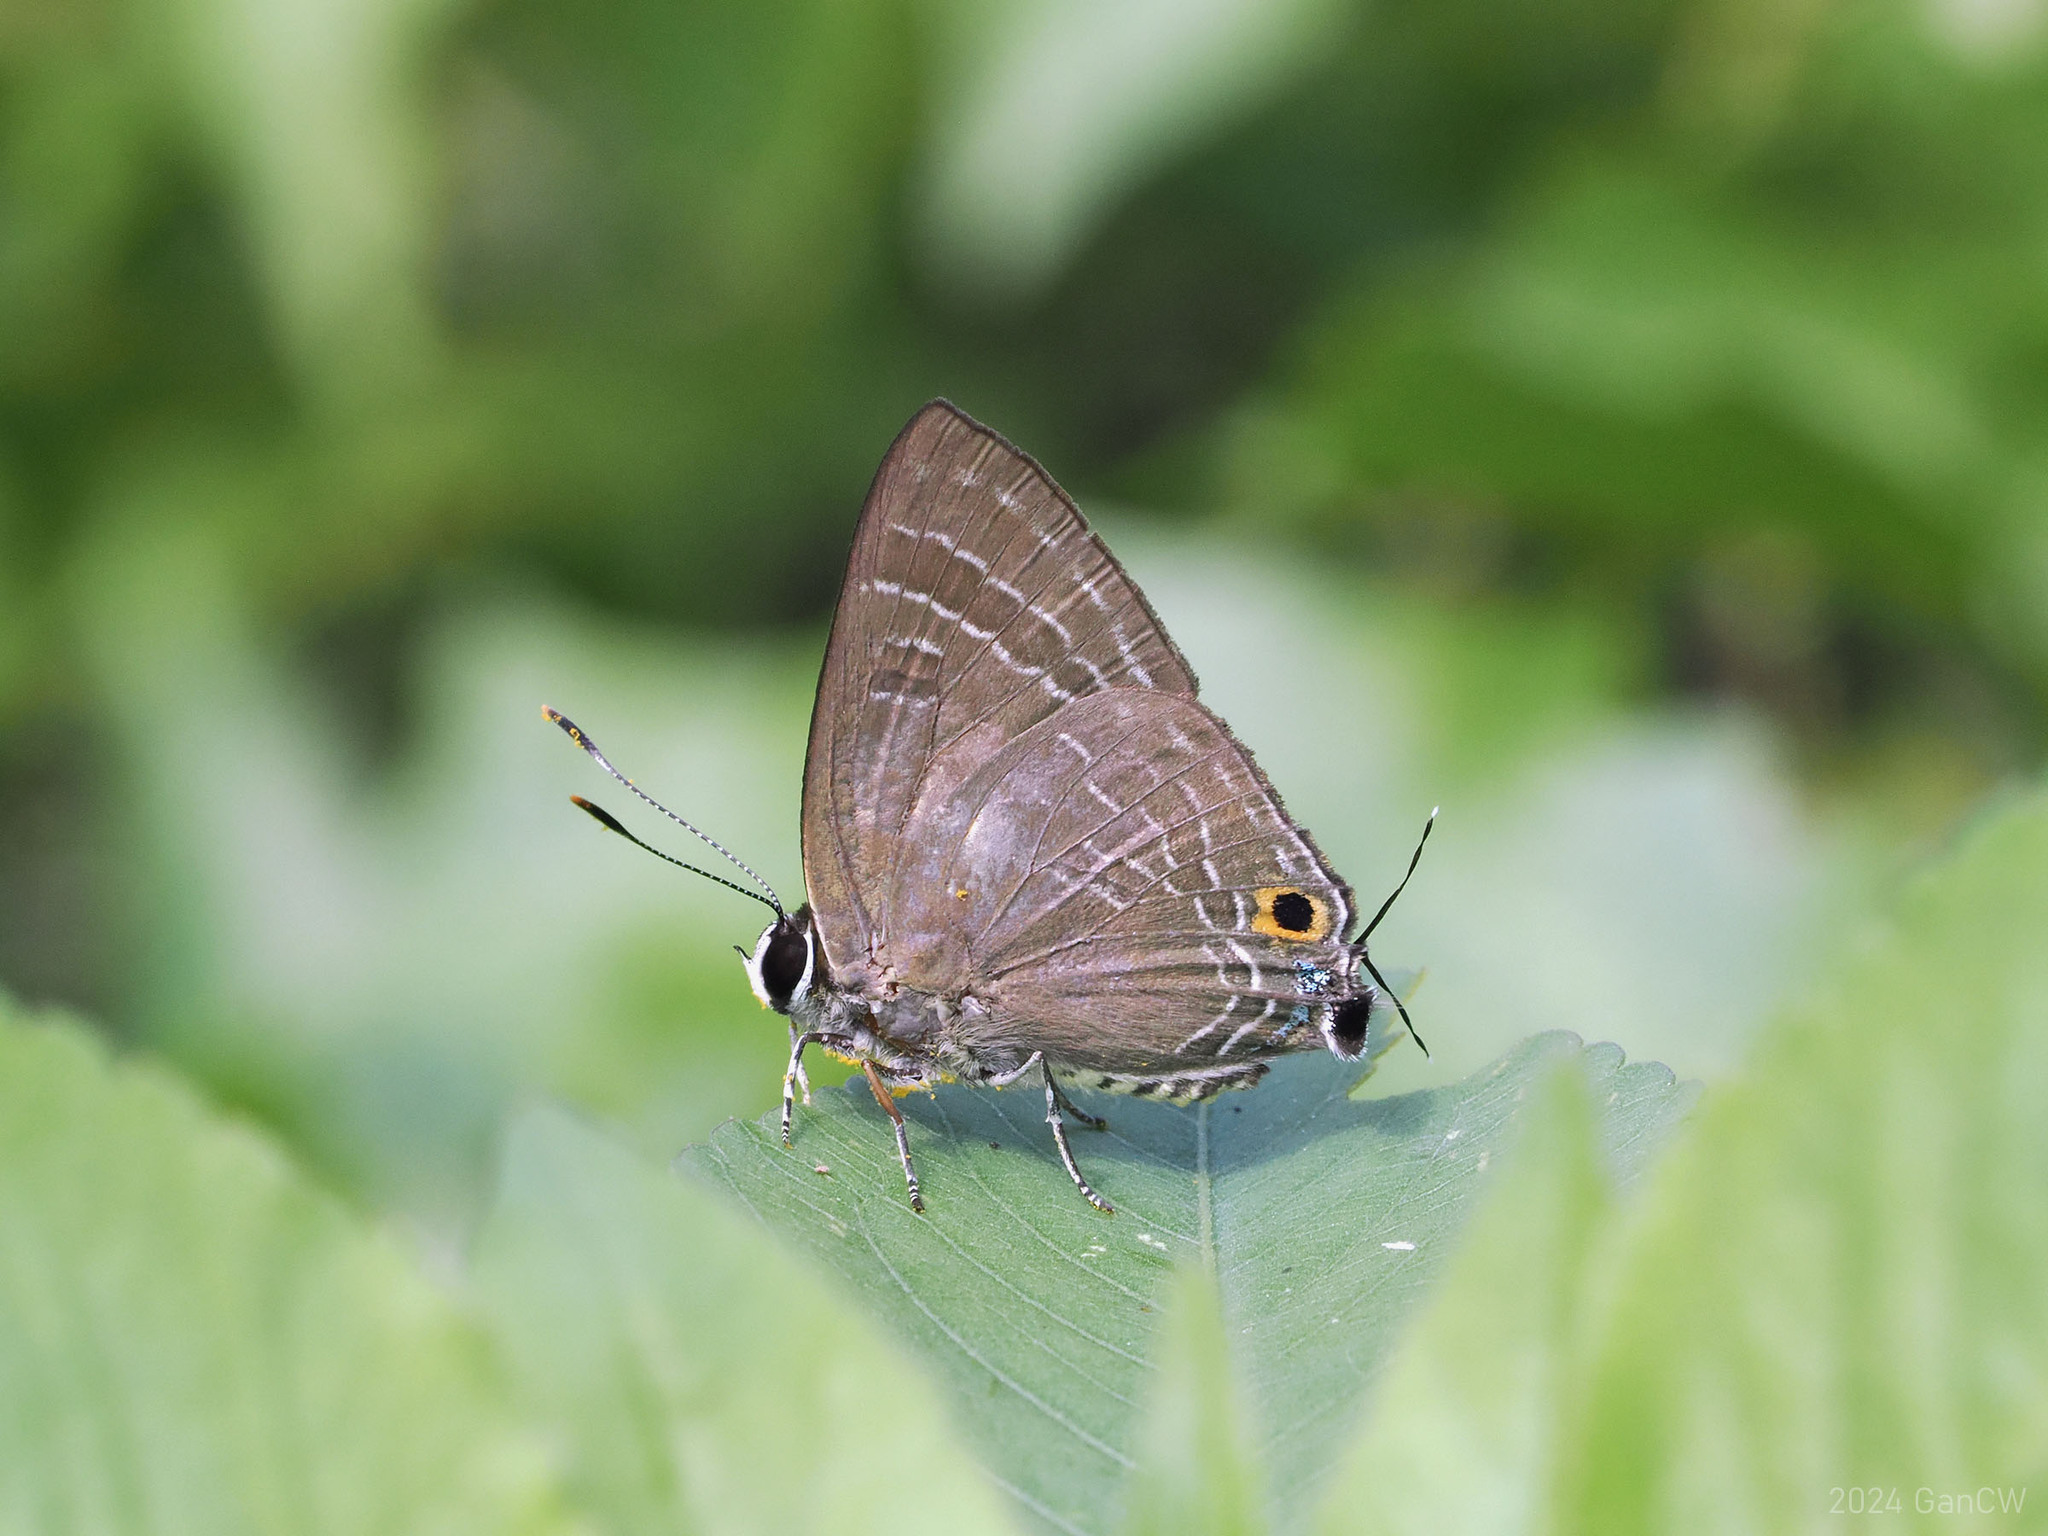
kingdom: Animalia
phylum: Arthropoda
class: Insecta
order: Lepidoptera
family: Lycaenidae
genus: Deudorix
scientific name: Deudorix epijarbas
